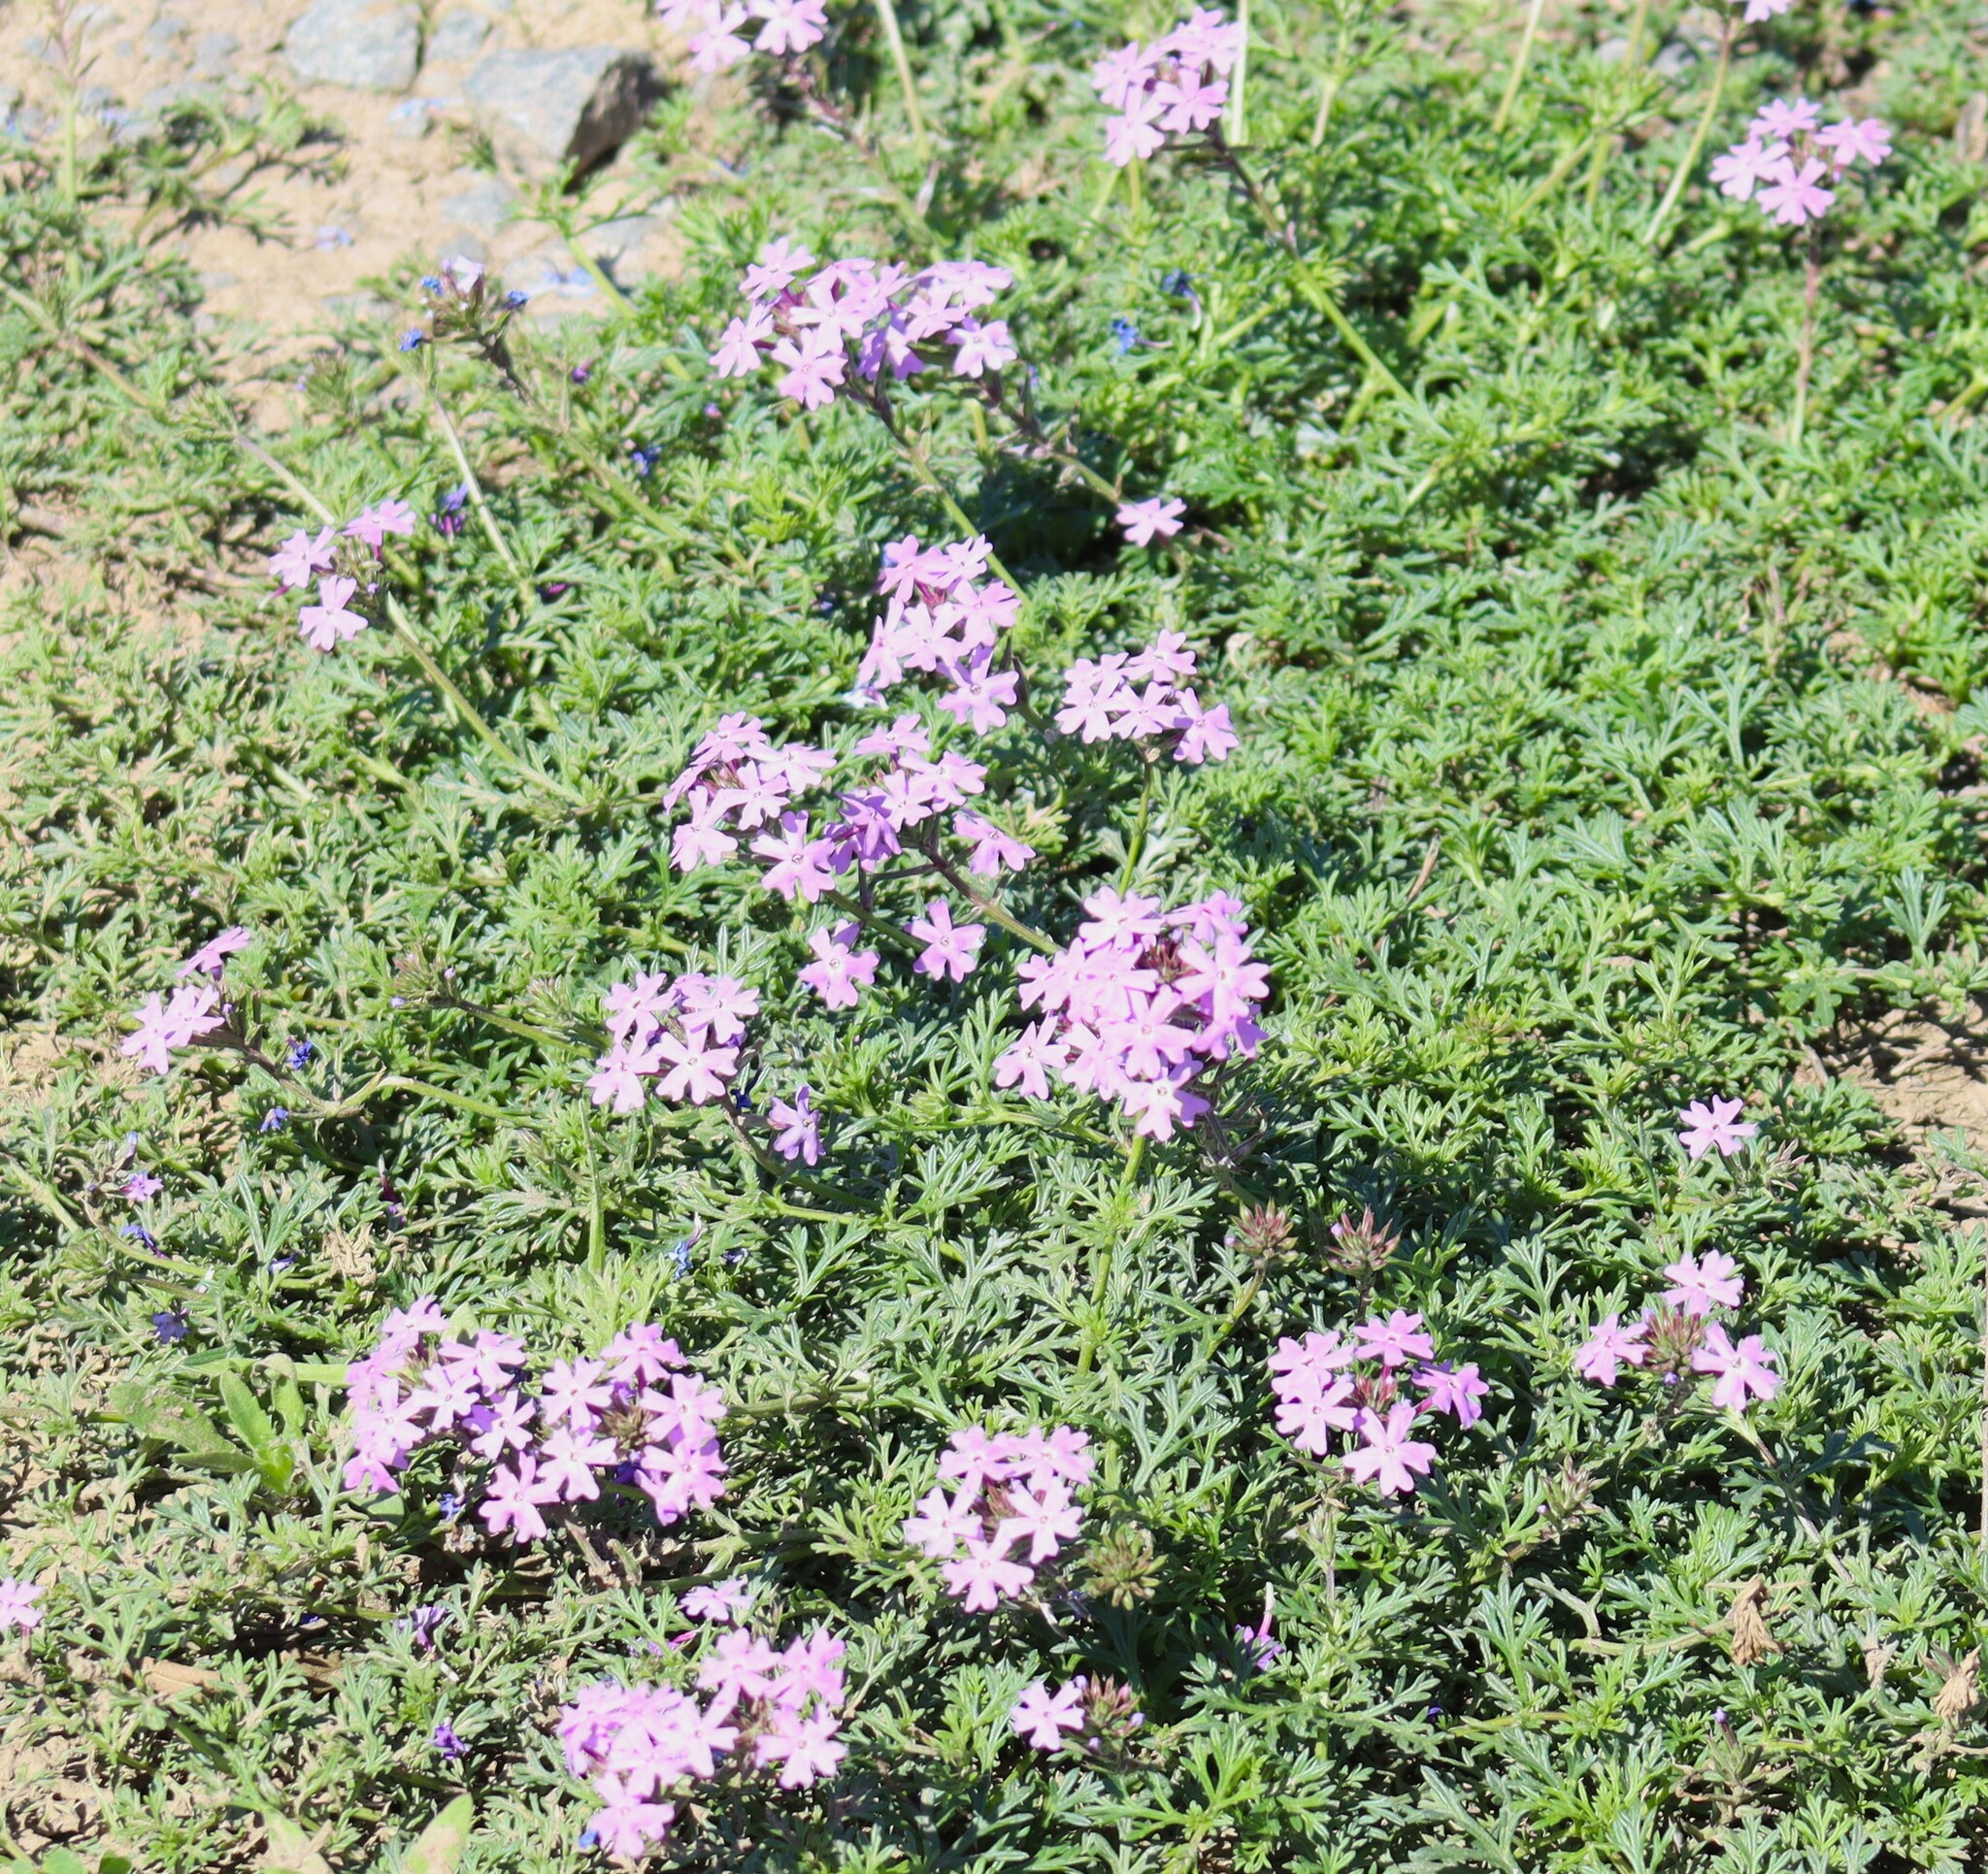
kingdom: Plantae
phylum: Tracheophyta
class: Magnoliopsida
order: Lamiales
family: Verbenaceae
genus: Verbena
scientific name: Verbena aristigera
